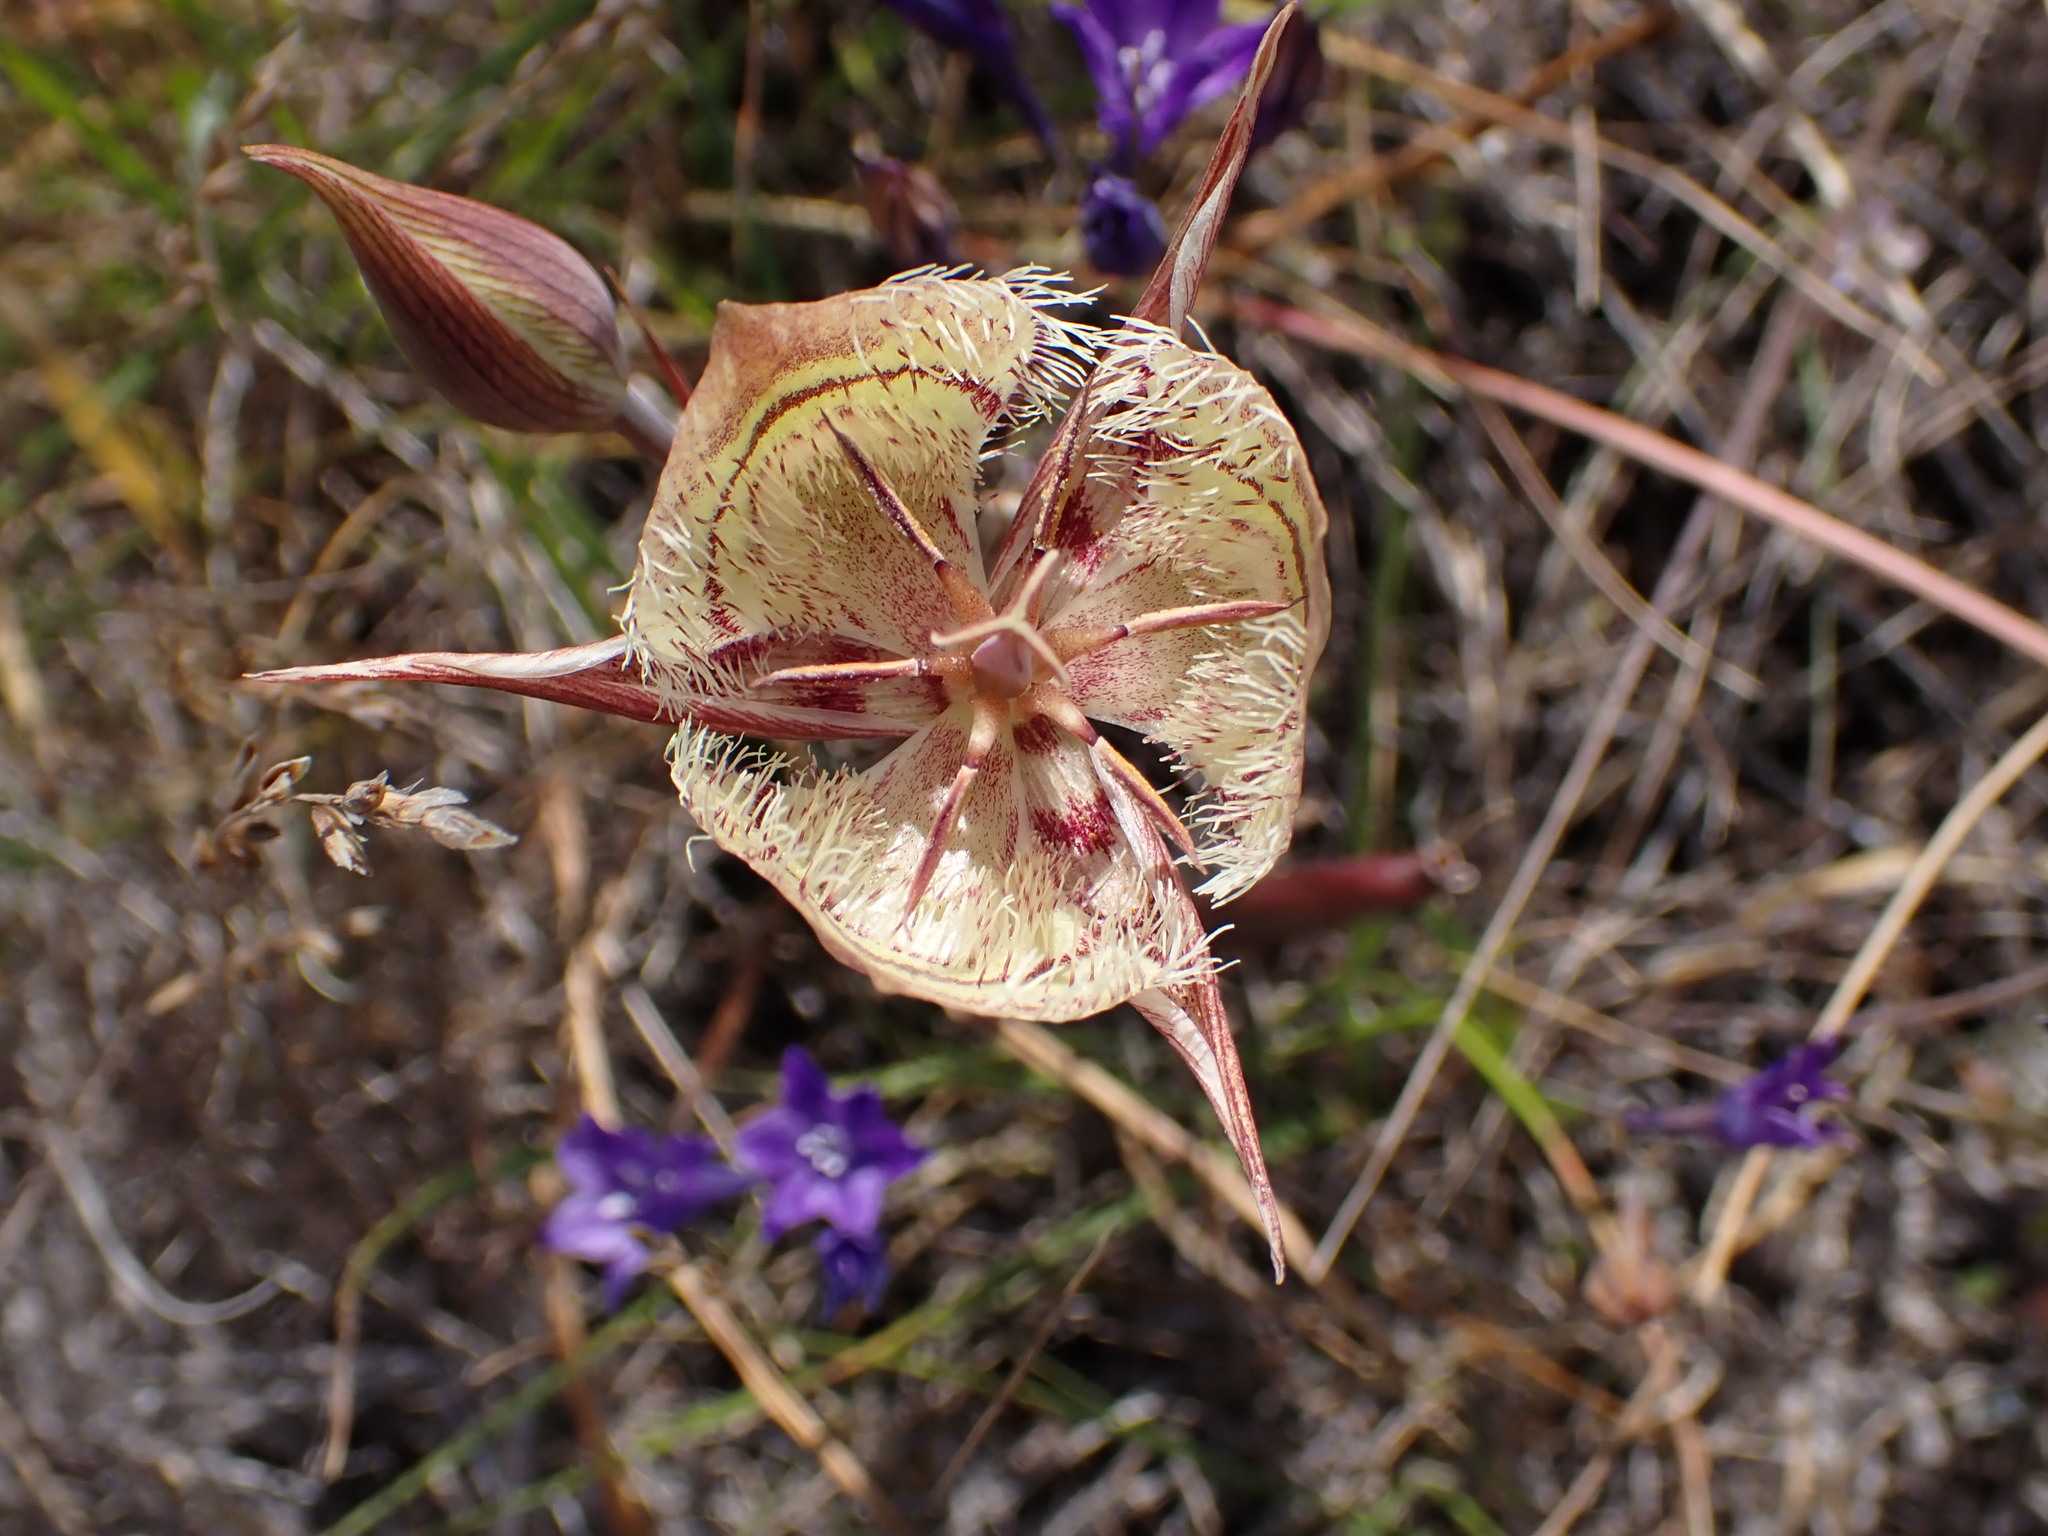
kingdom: Plantae
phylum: Tracheophyta
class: Liliopsida
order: Liliales
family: Liliaceae
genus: Calochortus
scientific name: Calochortus tiburonensis
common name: Tiburon mariposa-lily
